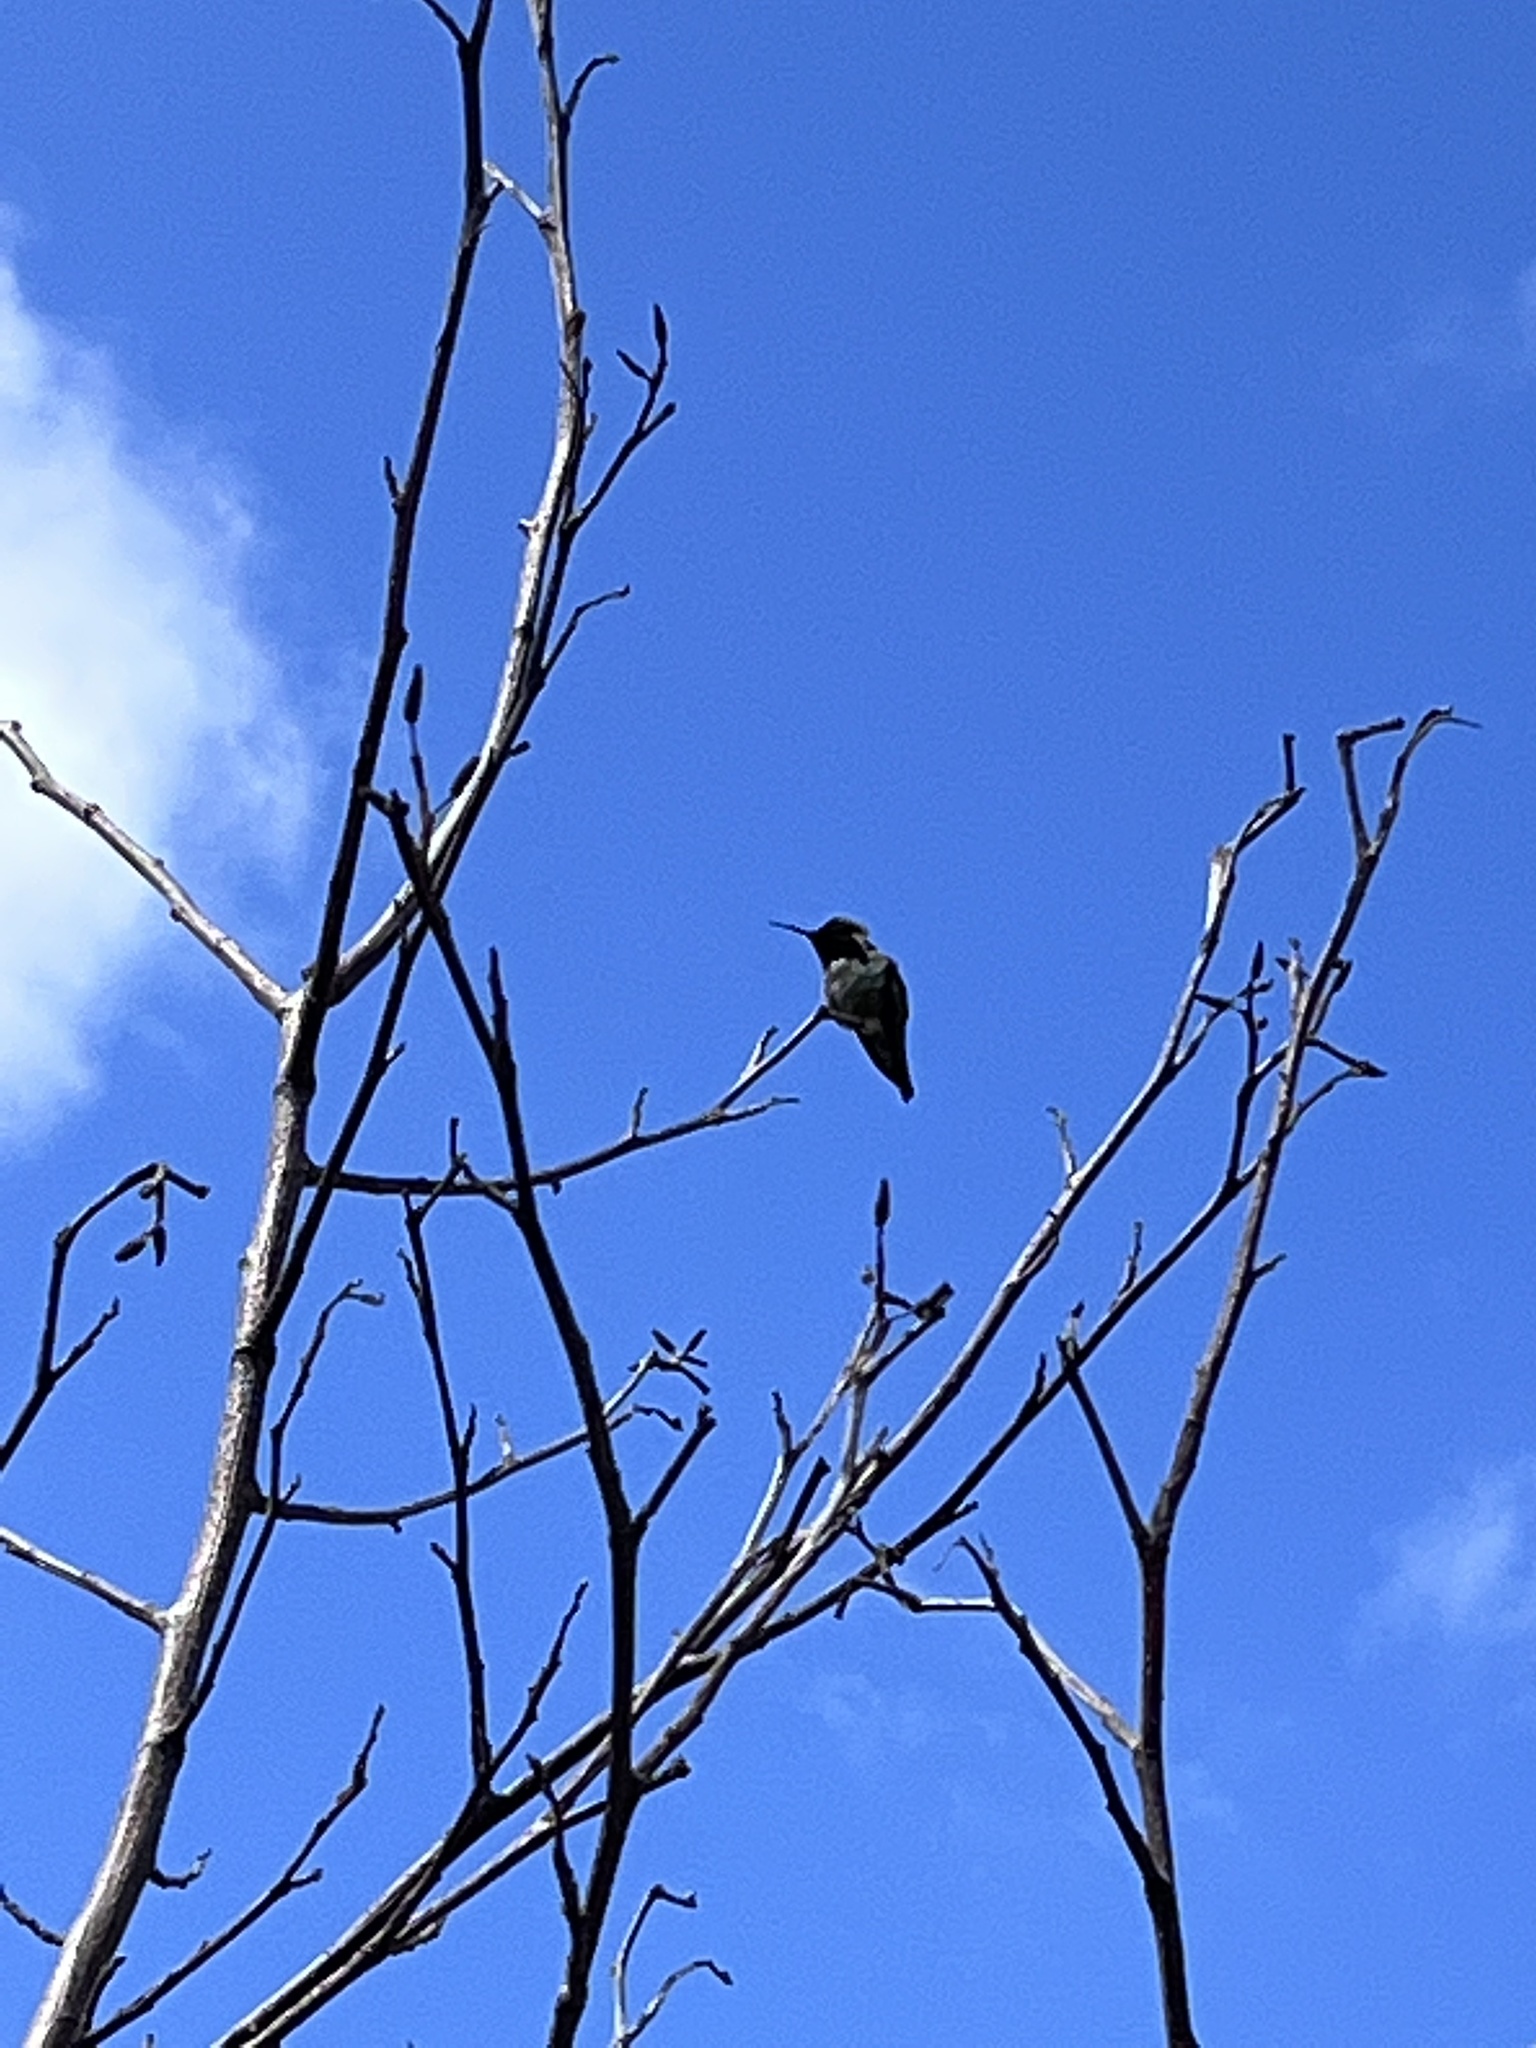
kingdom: Animalia
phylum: Chordata
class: Aves
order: Apodiformes
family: Trochilidae
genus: Calypte
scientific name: Calypte anna
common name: Anna's hummingbird
